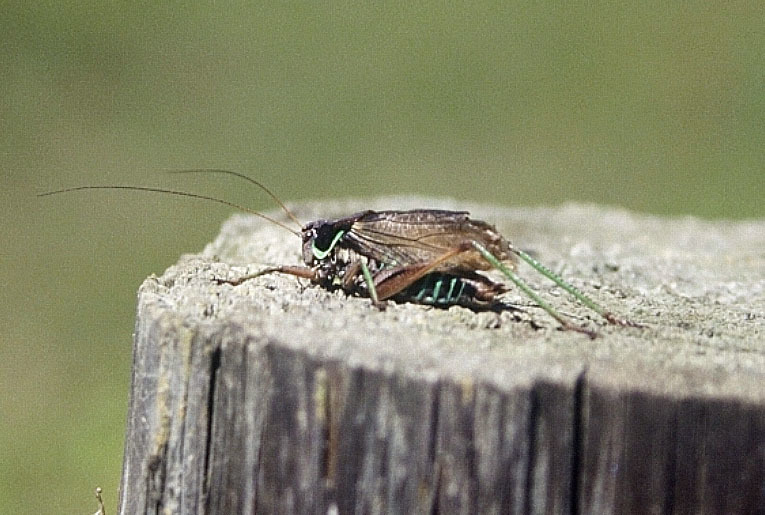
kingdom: Animalia
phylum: Arthropoda
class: Insecta
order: Orthoptera
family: Tettigoniidae
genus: Sphagniana
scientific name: Sphagniana sphagnorum
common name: Bog katydid
